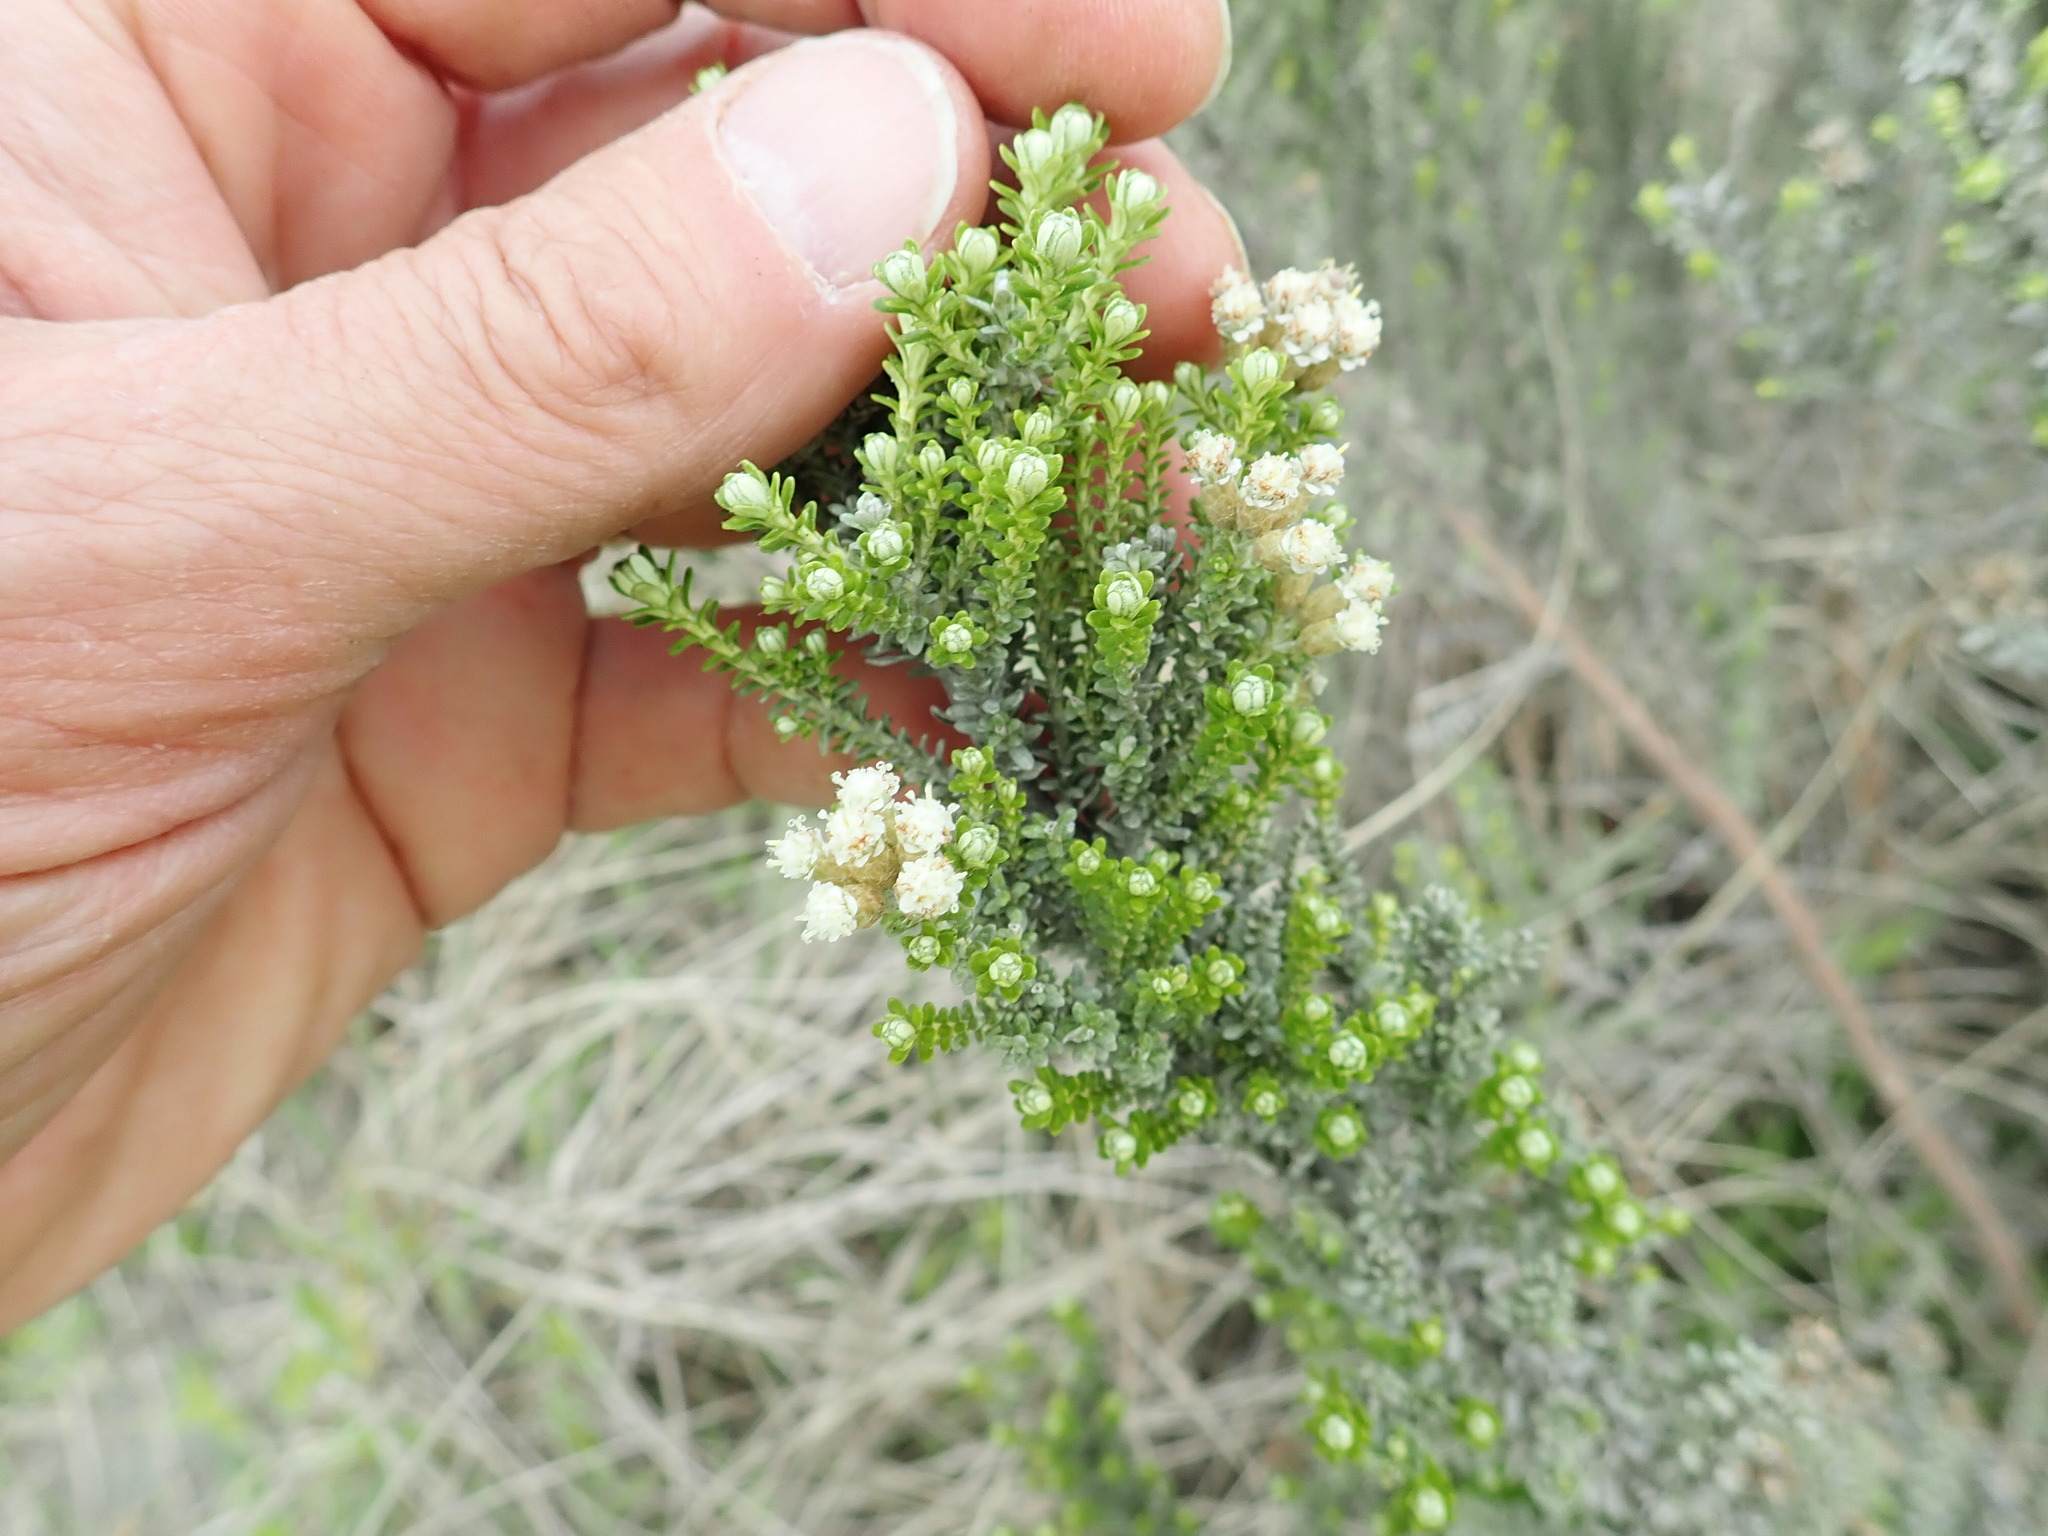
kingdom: Plantae
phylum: Tracheophyta
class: Magnoliopsida
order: Asterales
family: Asteraceae
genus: Ozothamnus
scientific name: Ozothamnus leptophyllus
